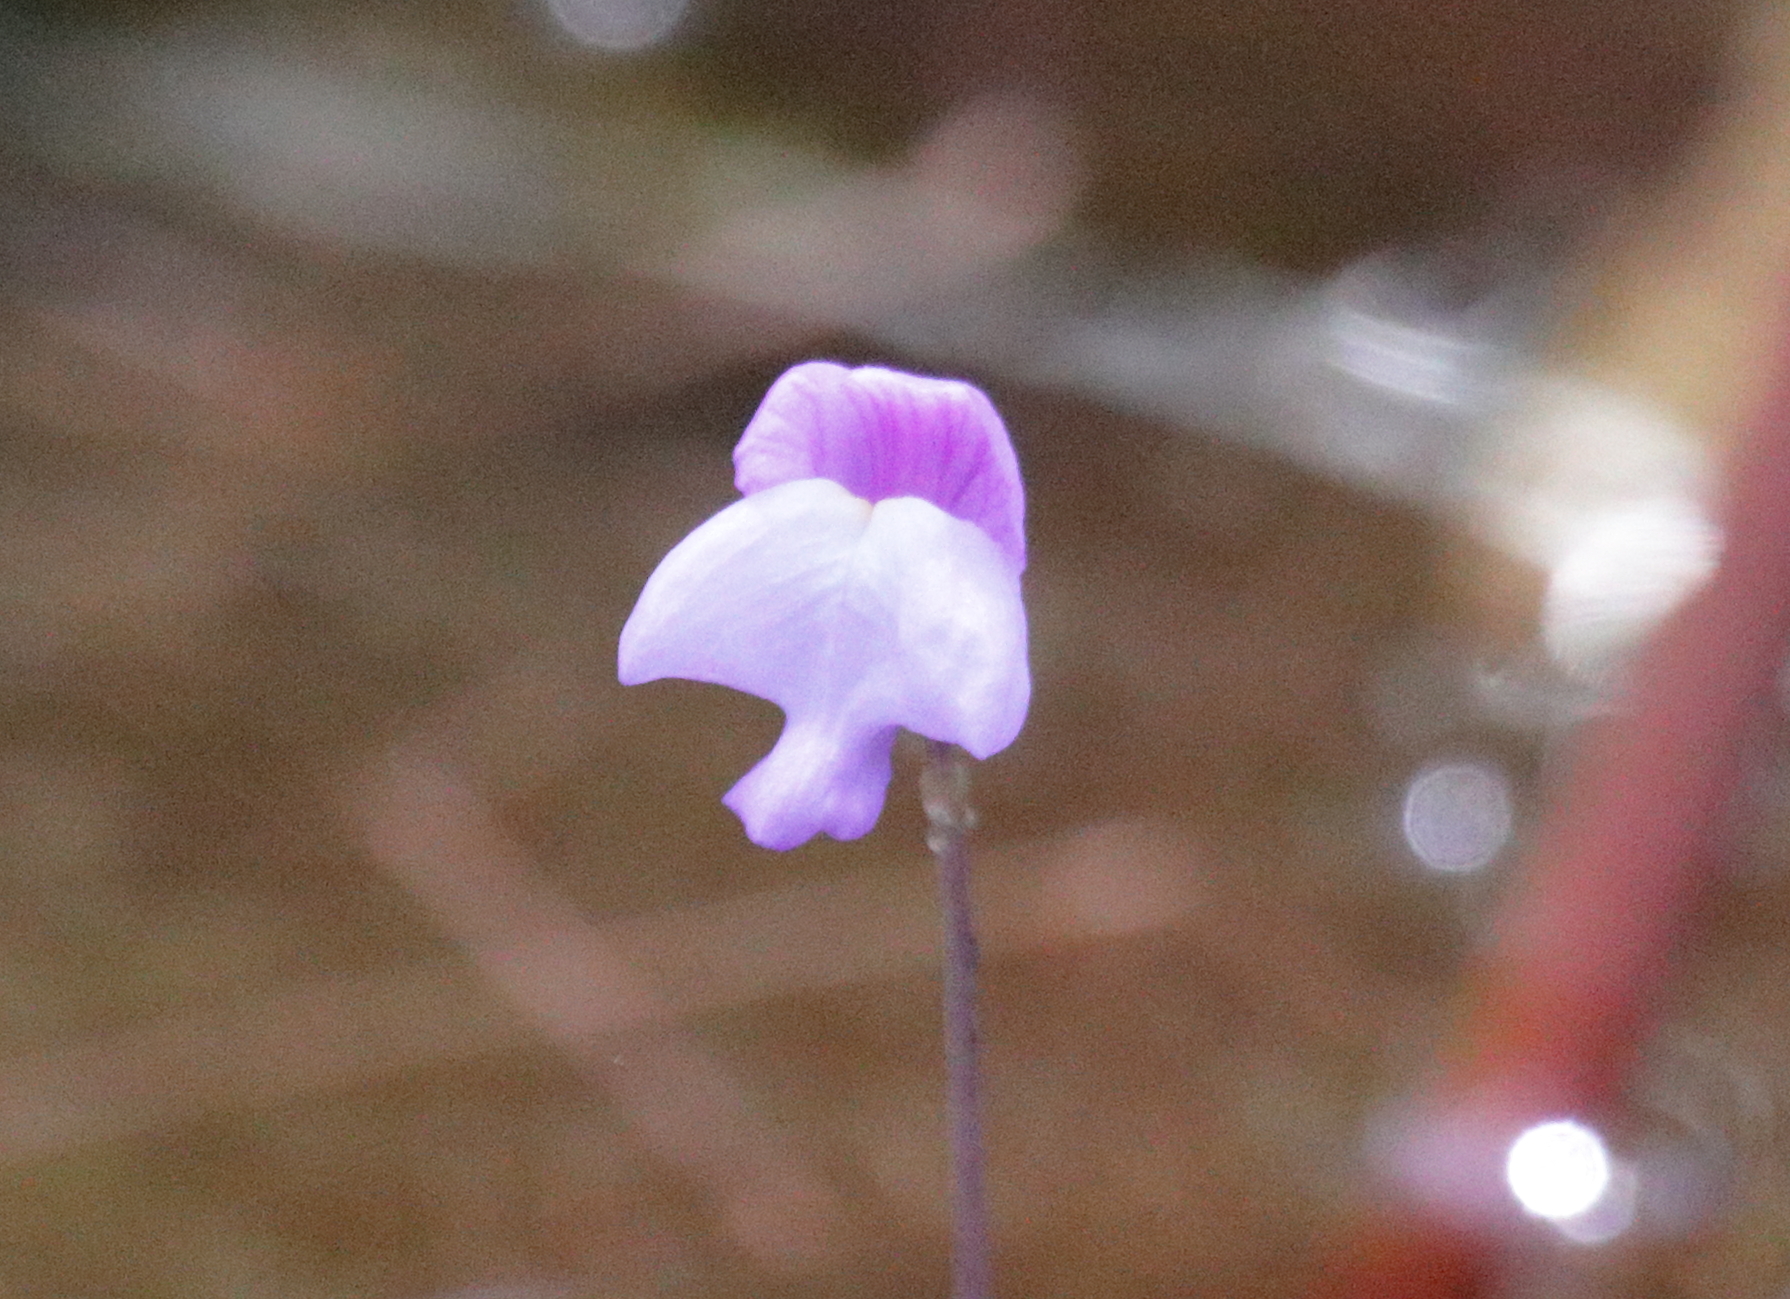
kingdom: Plantae
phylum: Tracheophyta
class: Magnoliopsida
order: Lamiales
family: Lentibulariaceae
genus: Utricularia
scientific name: Utricularia purpurea
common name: Eastern purple bladderwort
